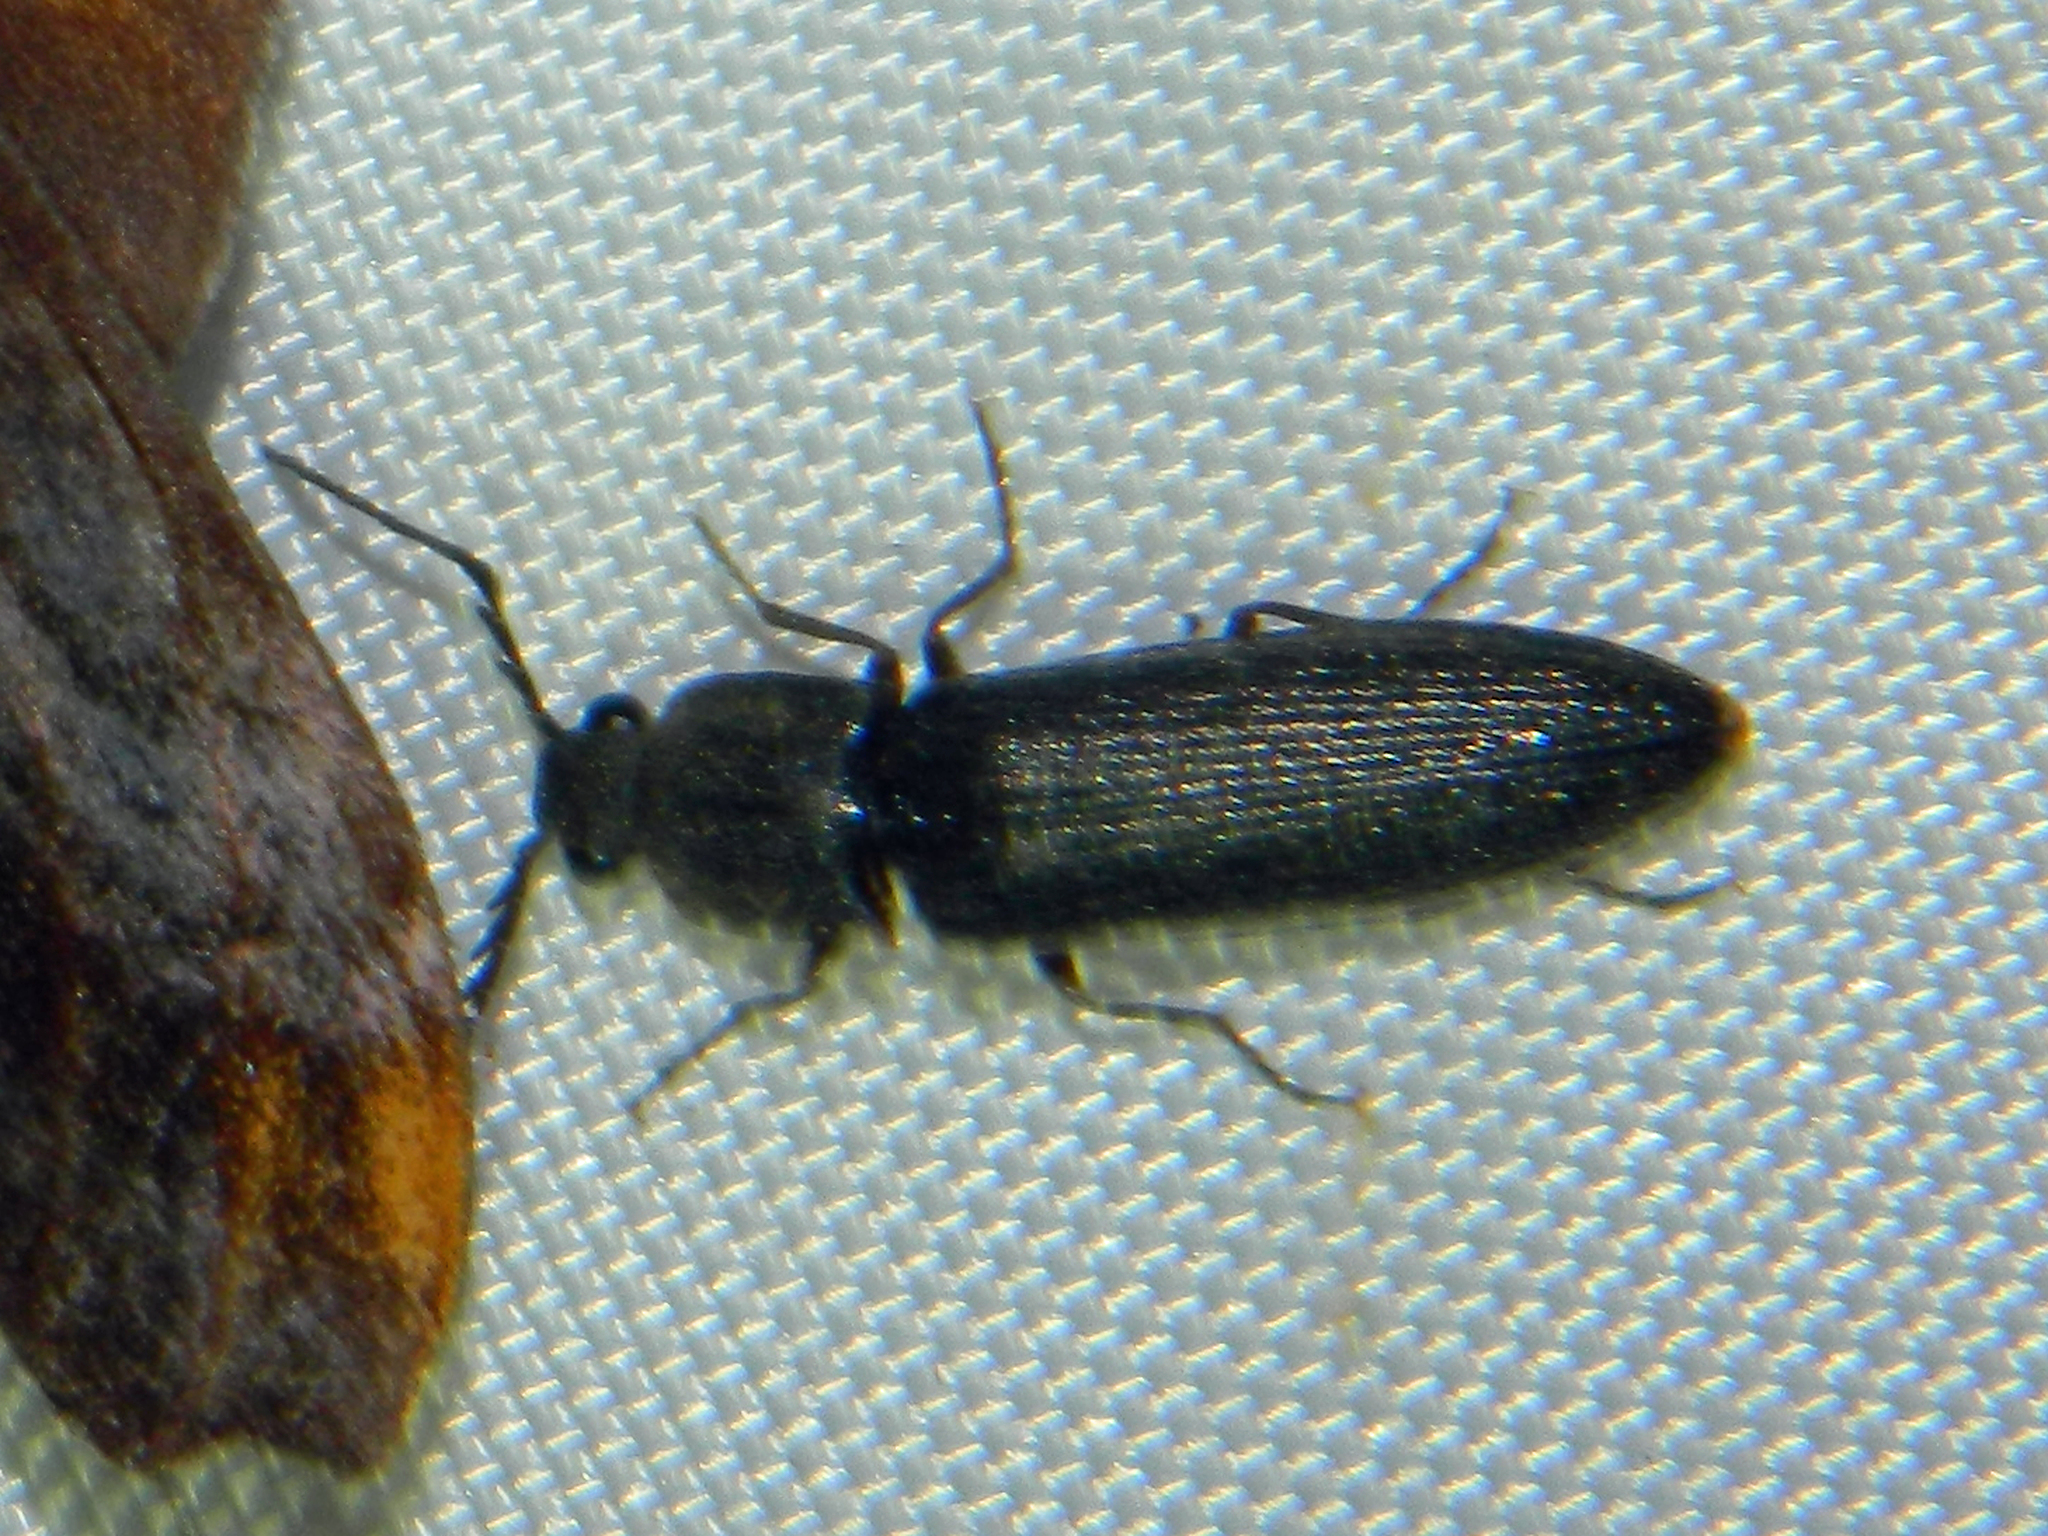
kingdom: Animalia
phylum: Arthropoda
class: Insecta
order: Coleoptera
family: Elateridae
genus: Athous
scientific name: Athous productus
